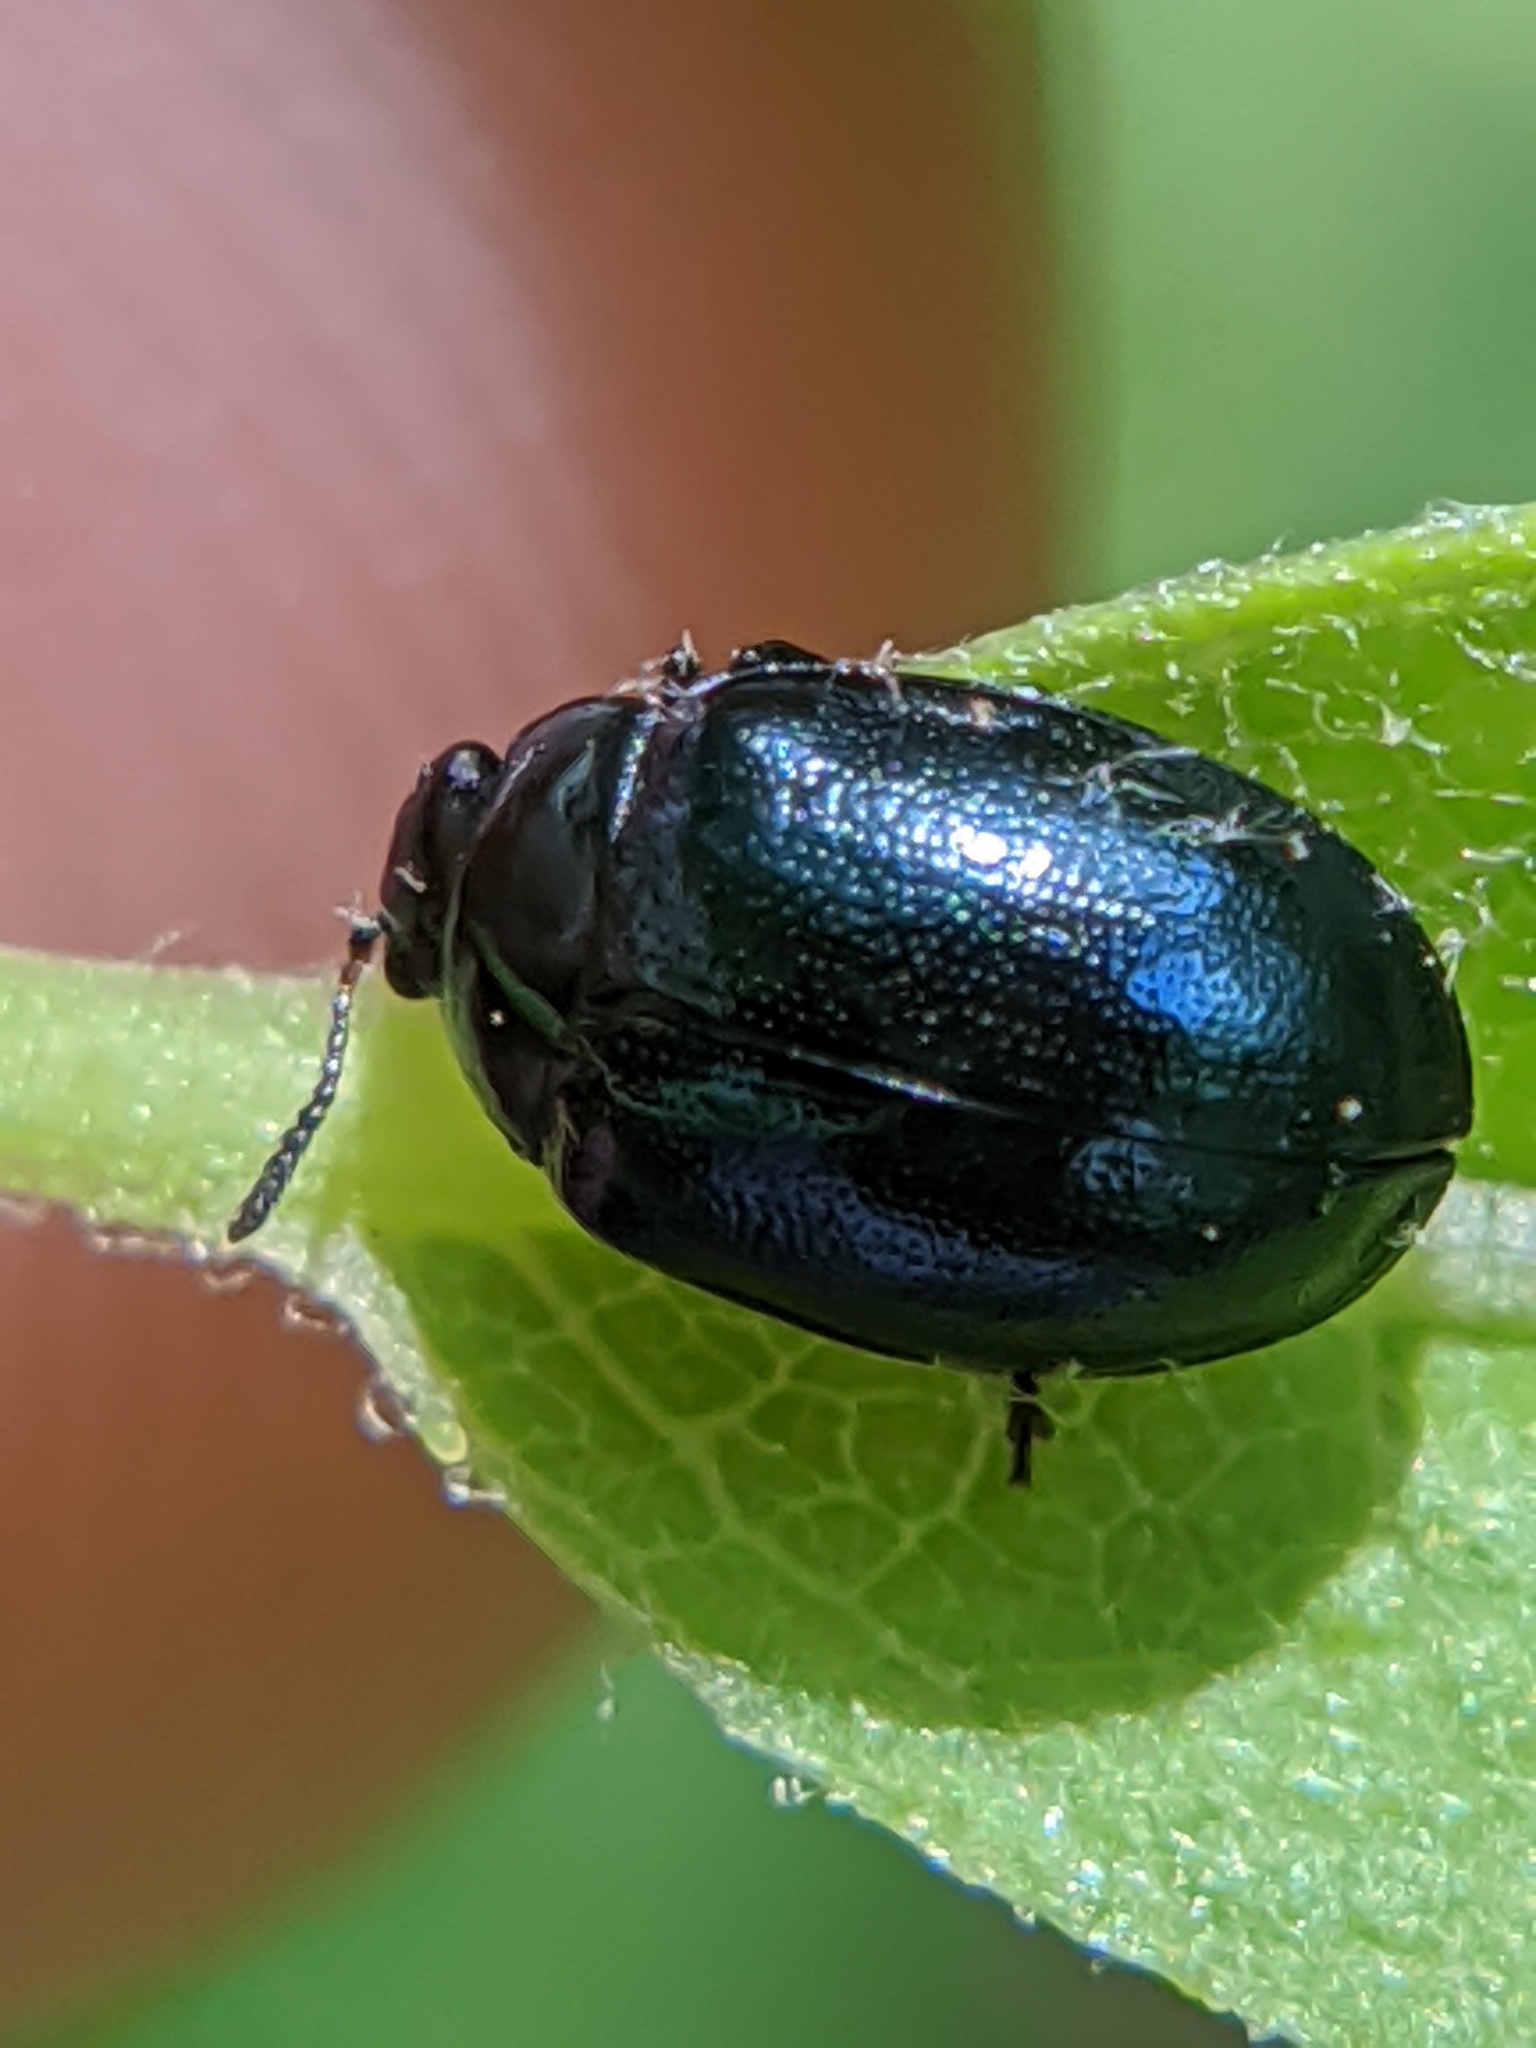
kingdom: Animalia
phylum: Arthropoda
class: Insecta
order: Coleoptera
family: Chrysomelidae
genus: Plagiodera
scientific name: Plagiodera versicolora
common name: Imported willow leaf beetle
